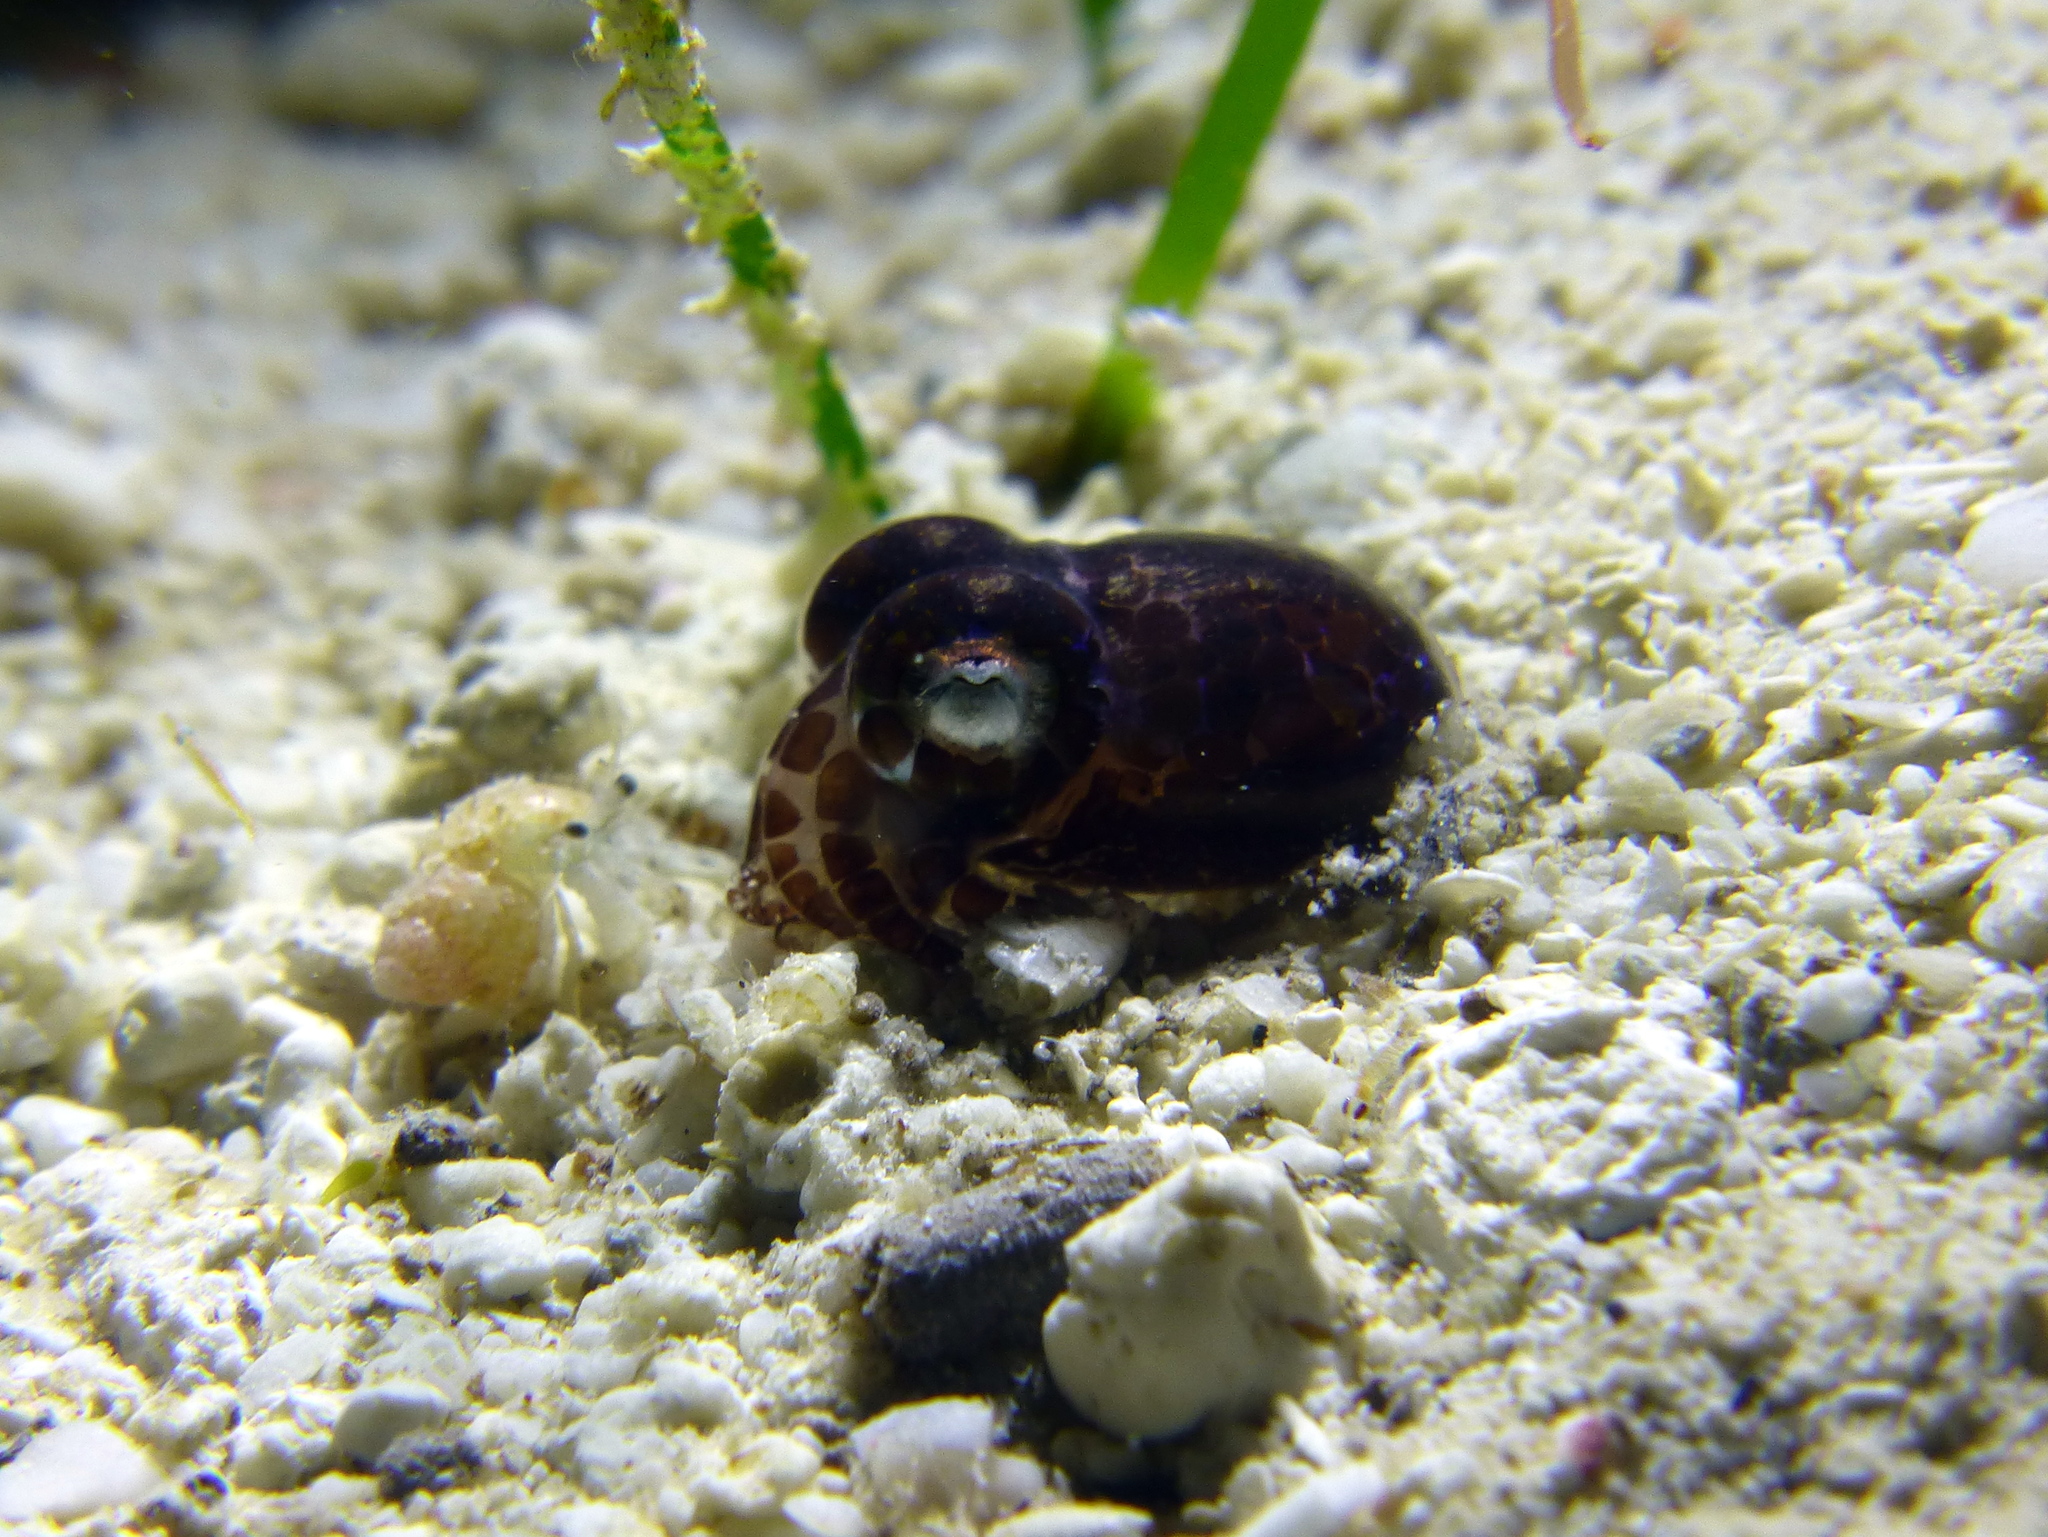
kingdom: Animalia
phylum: Mollusca
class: Cephalopoda
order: Sepiida
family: Sepiolidae
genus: Euprymna
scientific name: Euprymna berryi
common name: Humming-bird bobtail squid
